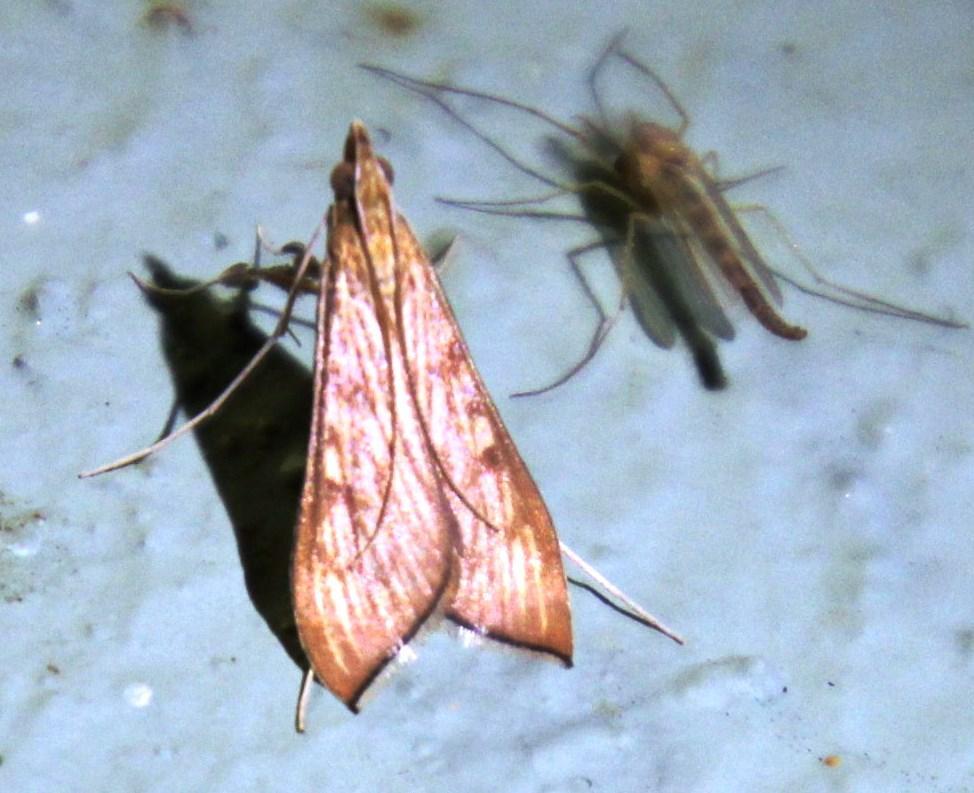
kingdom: Animalia
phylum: Arthropoda
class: Insecta
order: Lepidoptera
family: Crambidae
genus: Antigastra
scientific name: Antigastra catalaunalis
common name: Spanish dot
